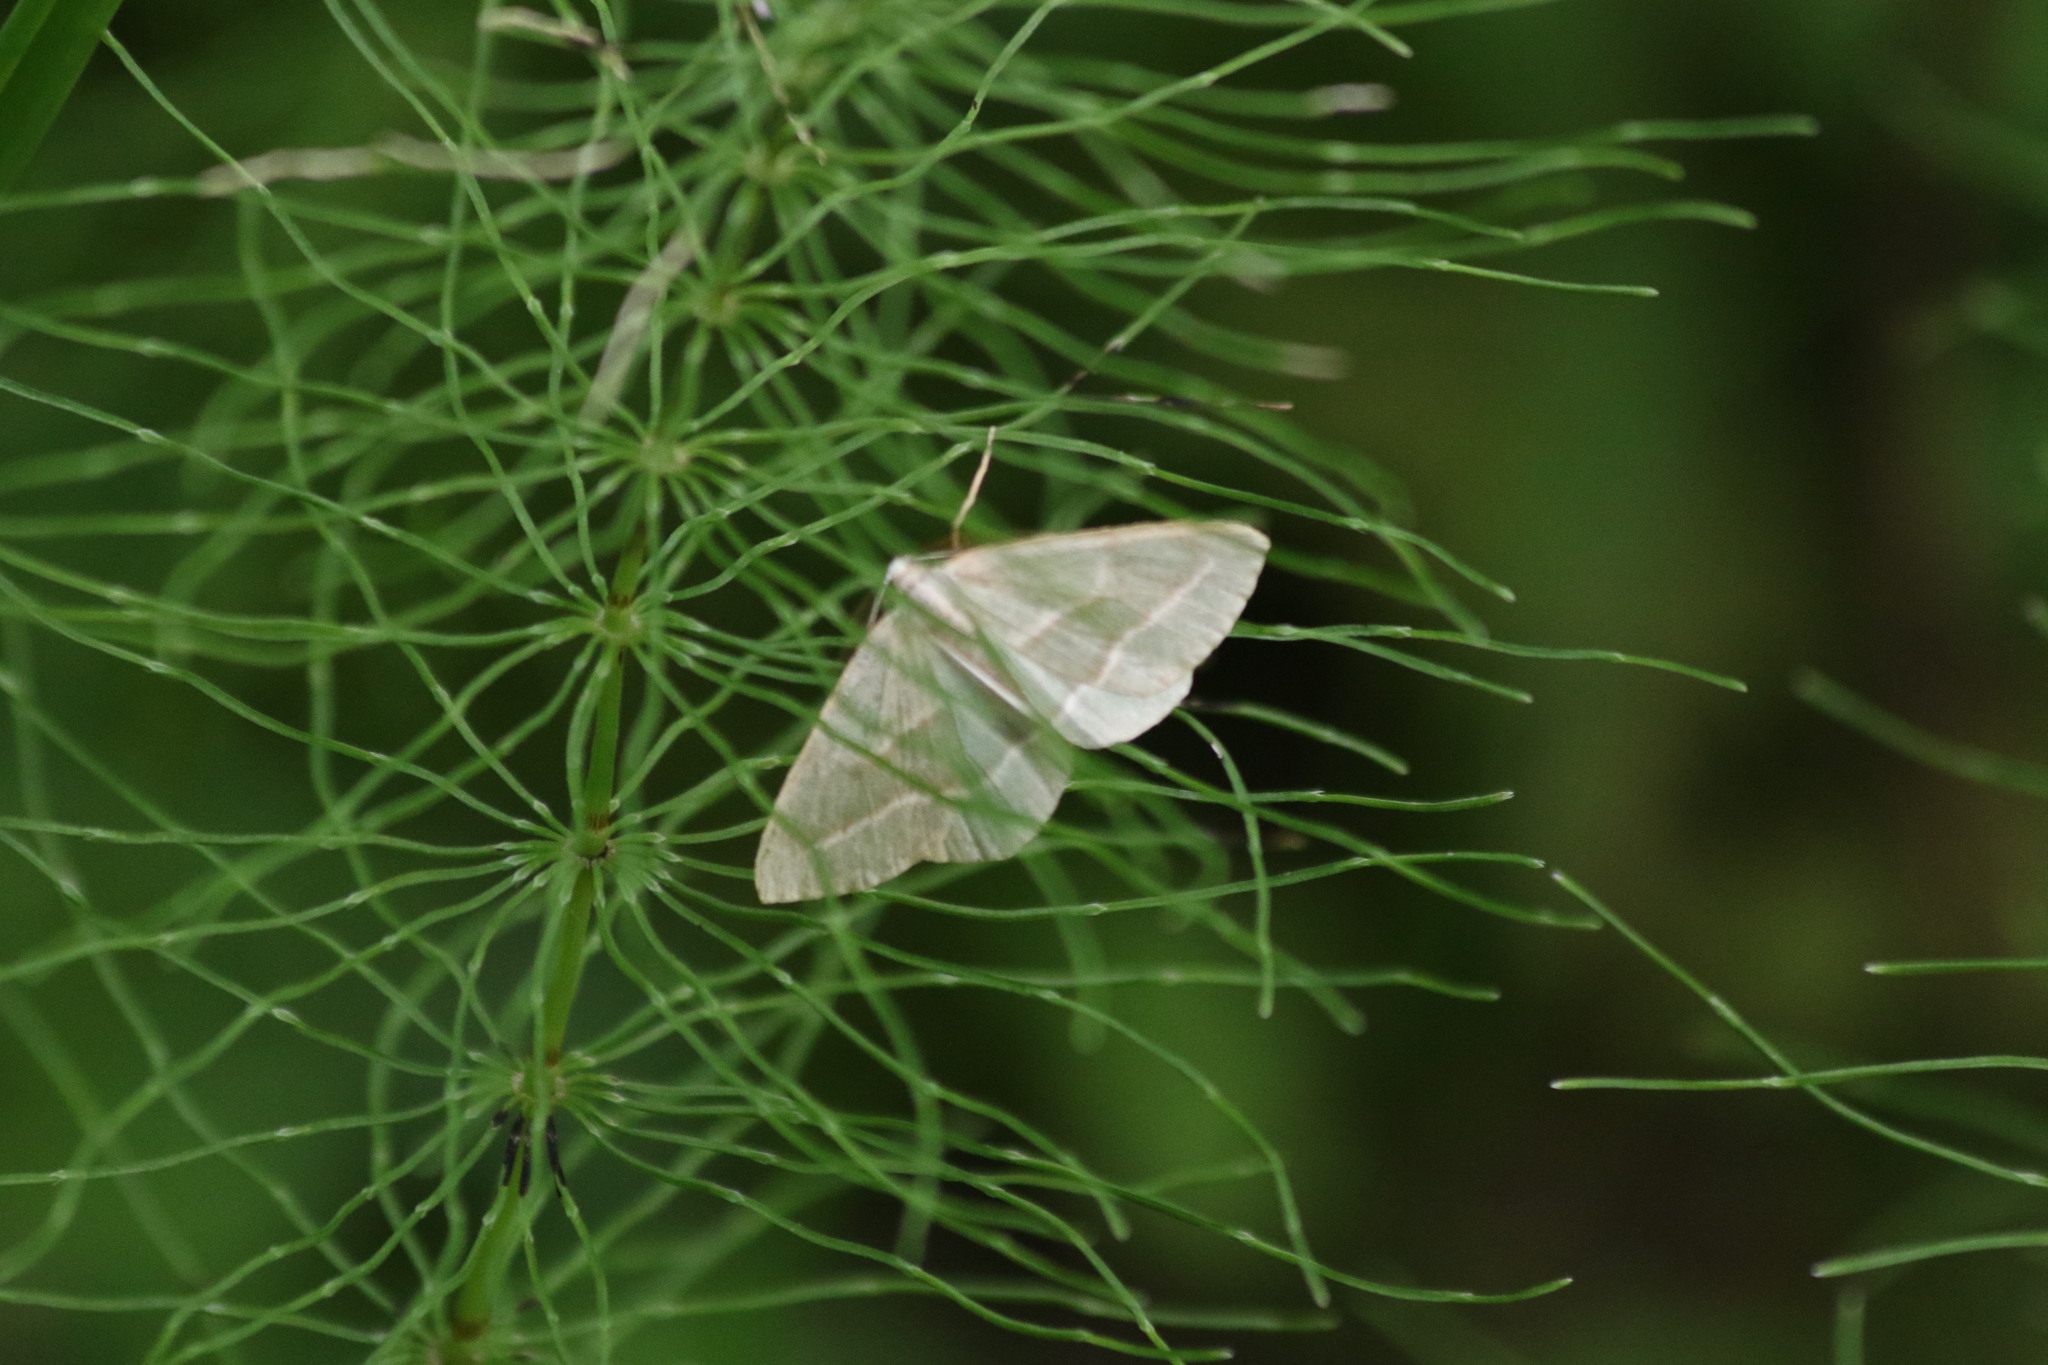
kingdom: Animalia
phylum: Arthropoda
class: Insecta
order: Lepidoptera
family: Geometridae
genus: Hylaea
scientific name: Hylaea fasciaria
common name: Barred red
